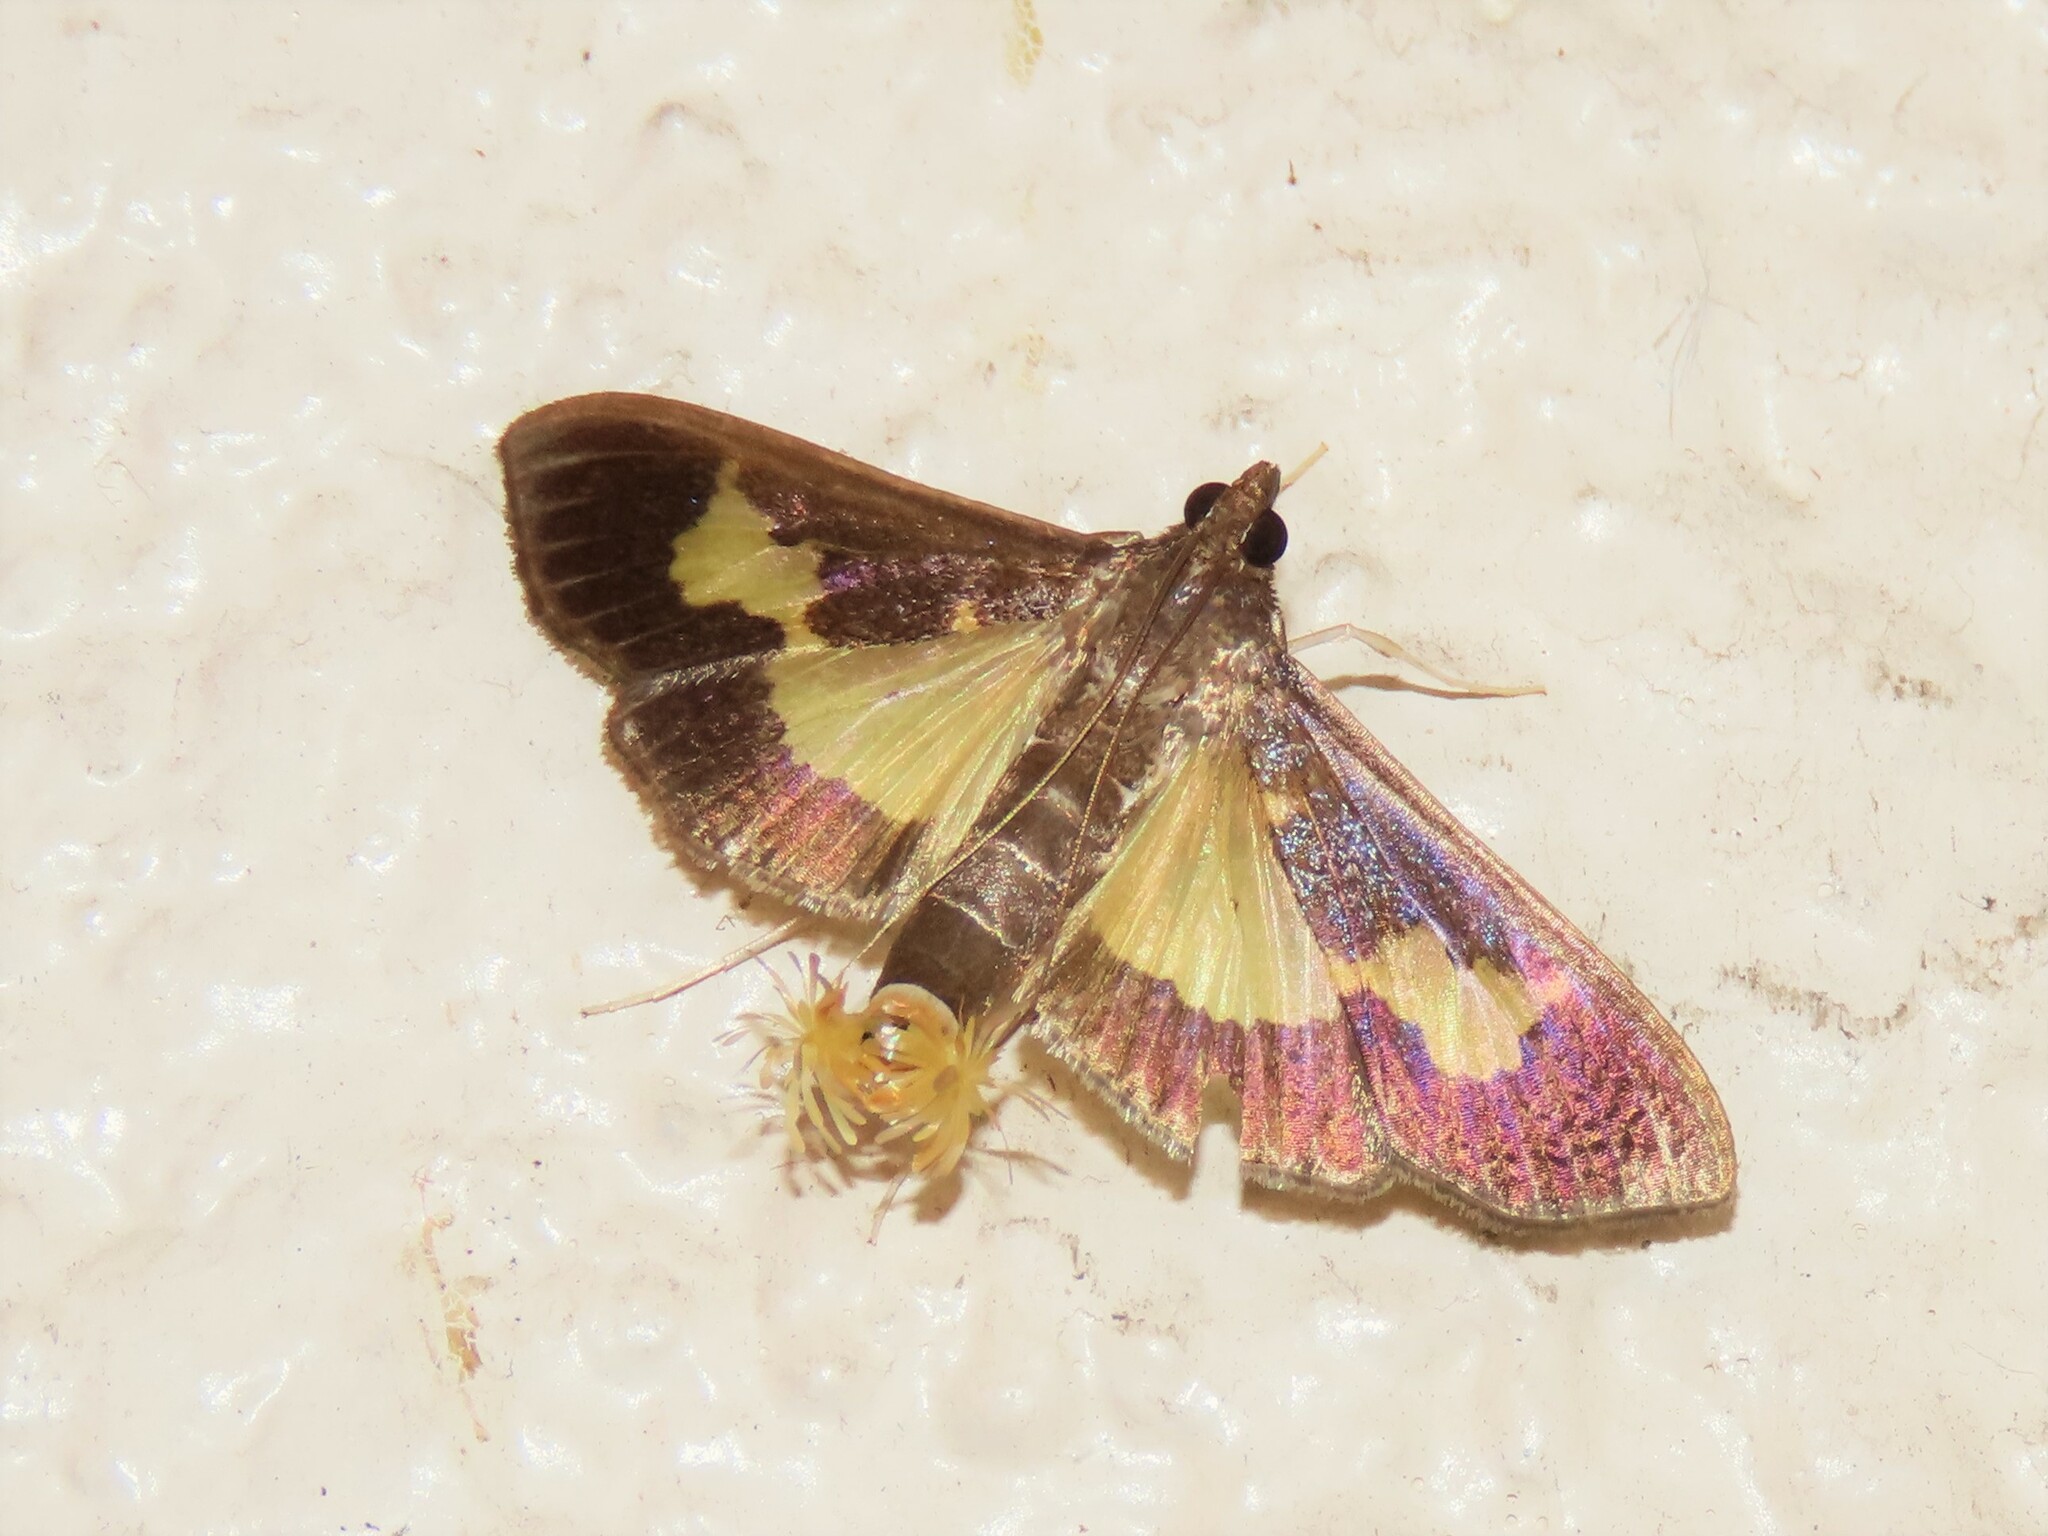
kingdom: Animalia
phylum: Arthropoda
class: Insecta
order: Lepidoptera
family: Crambidae
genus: Cryptographis
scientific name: Cryptographis nitidalis
